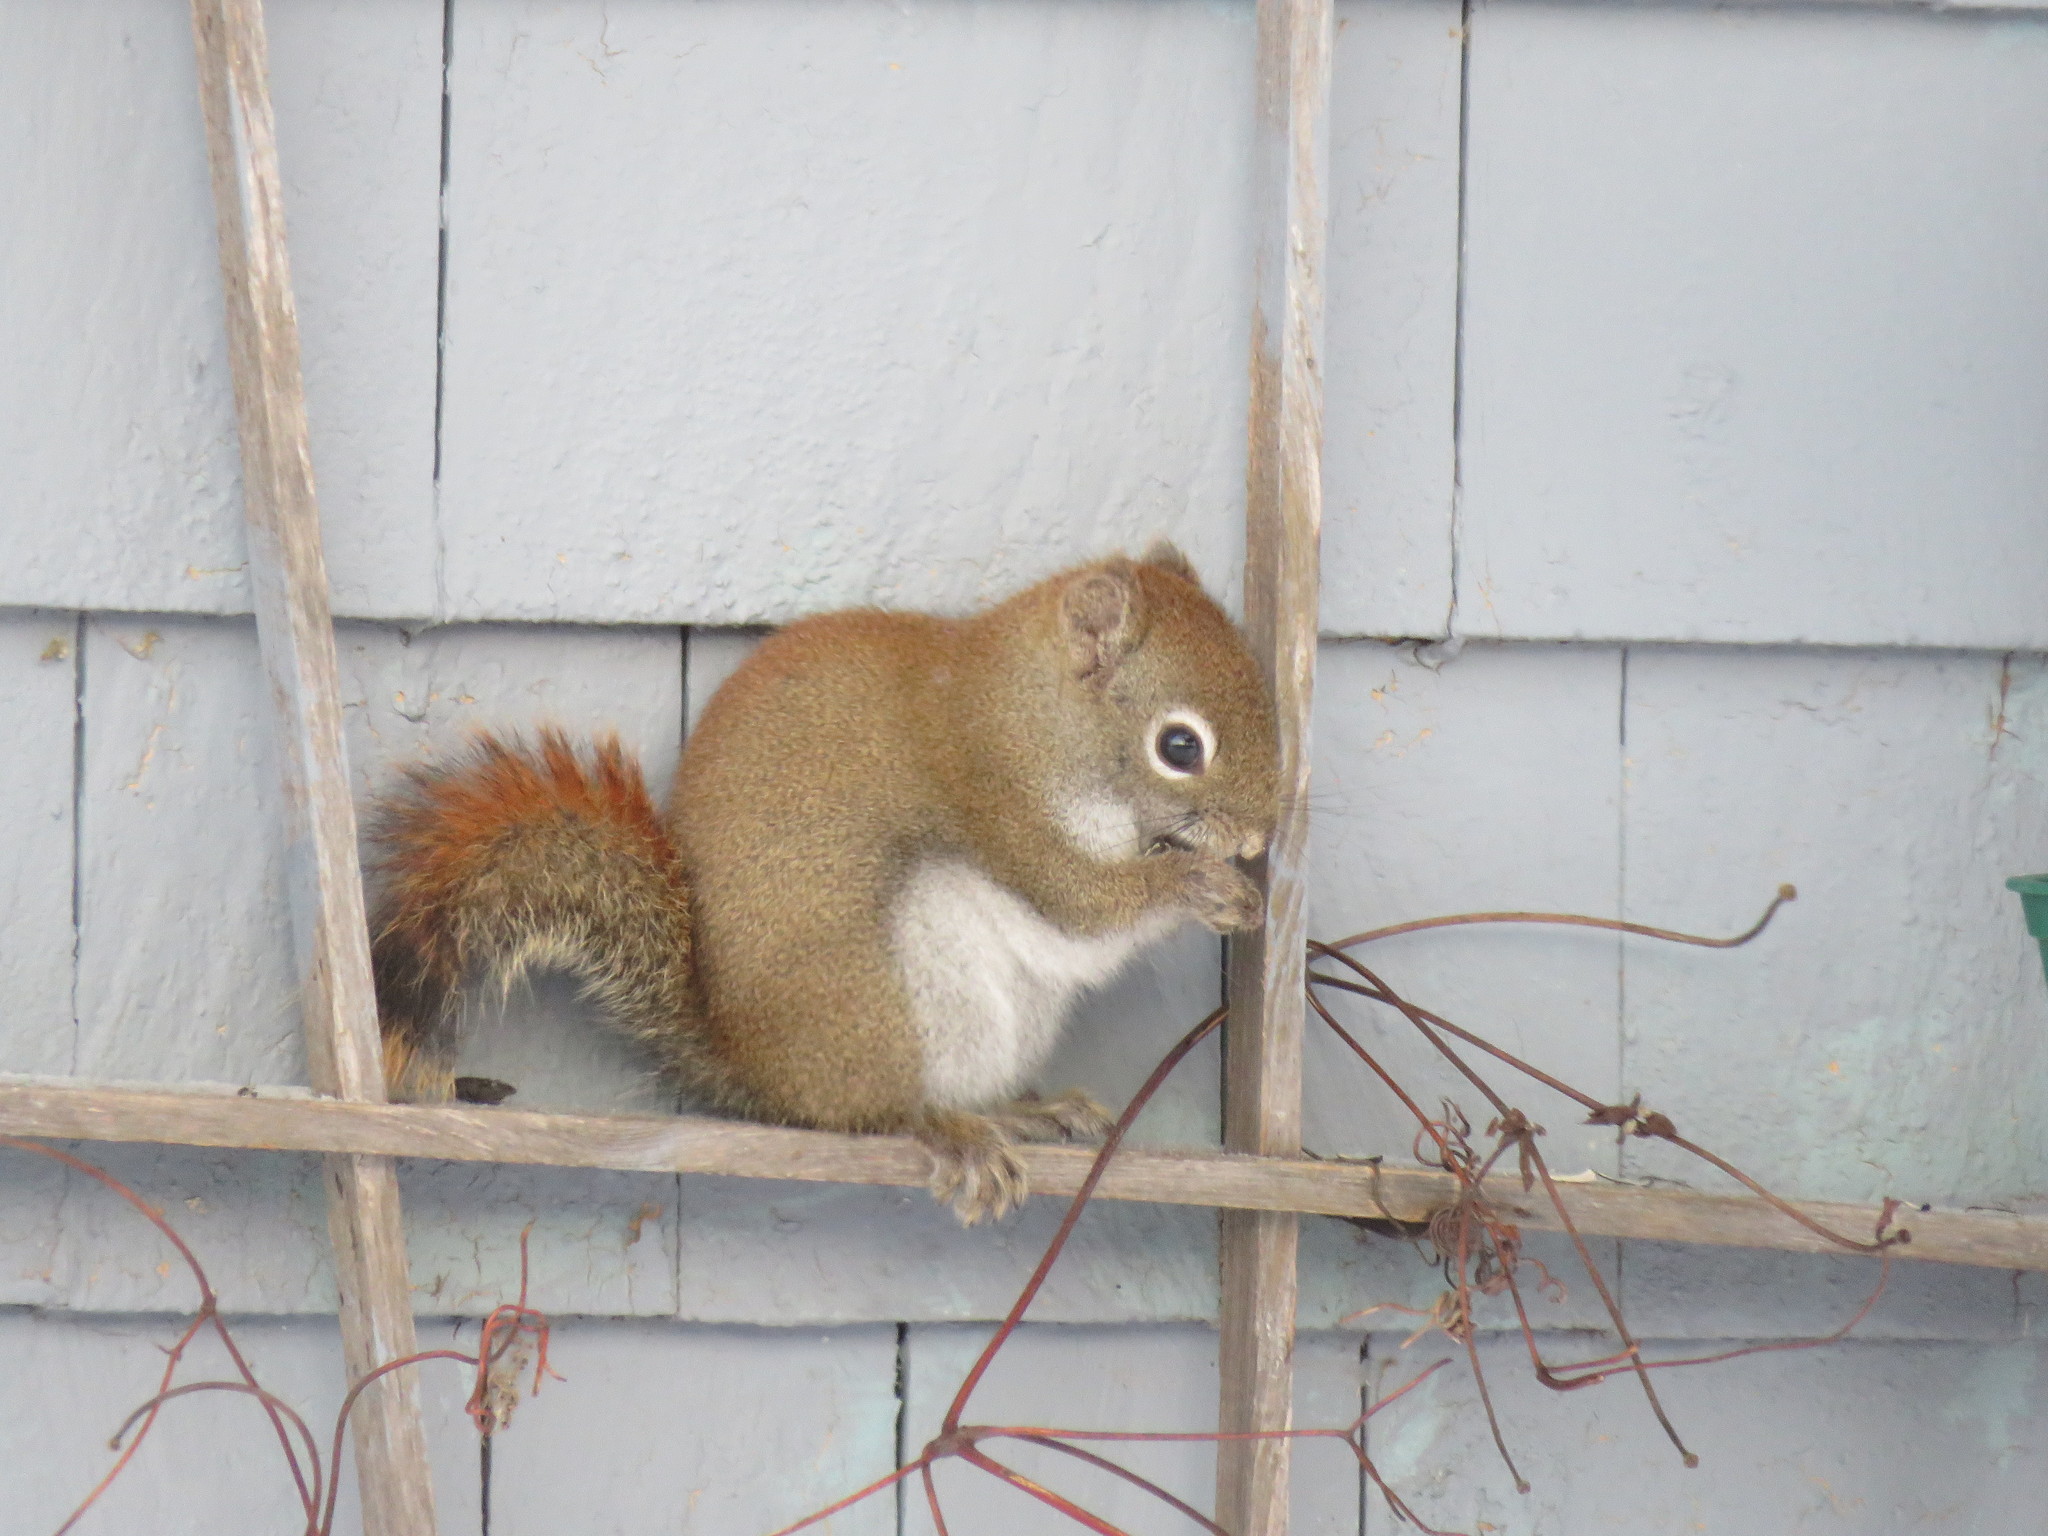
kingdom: Animalia
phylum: Chordata
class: Mammalia
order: Rodentia
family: Sciuridae
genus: Tamiasciurus
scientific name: Tamiasciurus hudsonicus
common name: Red squirrel
